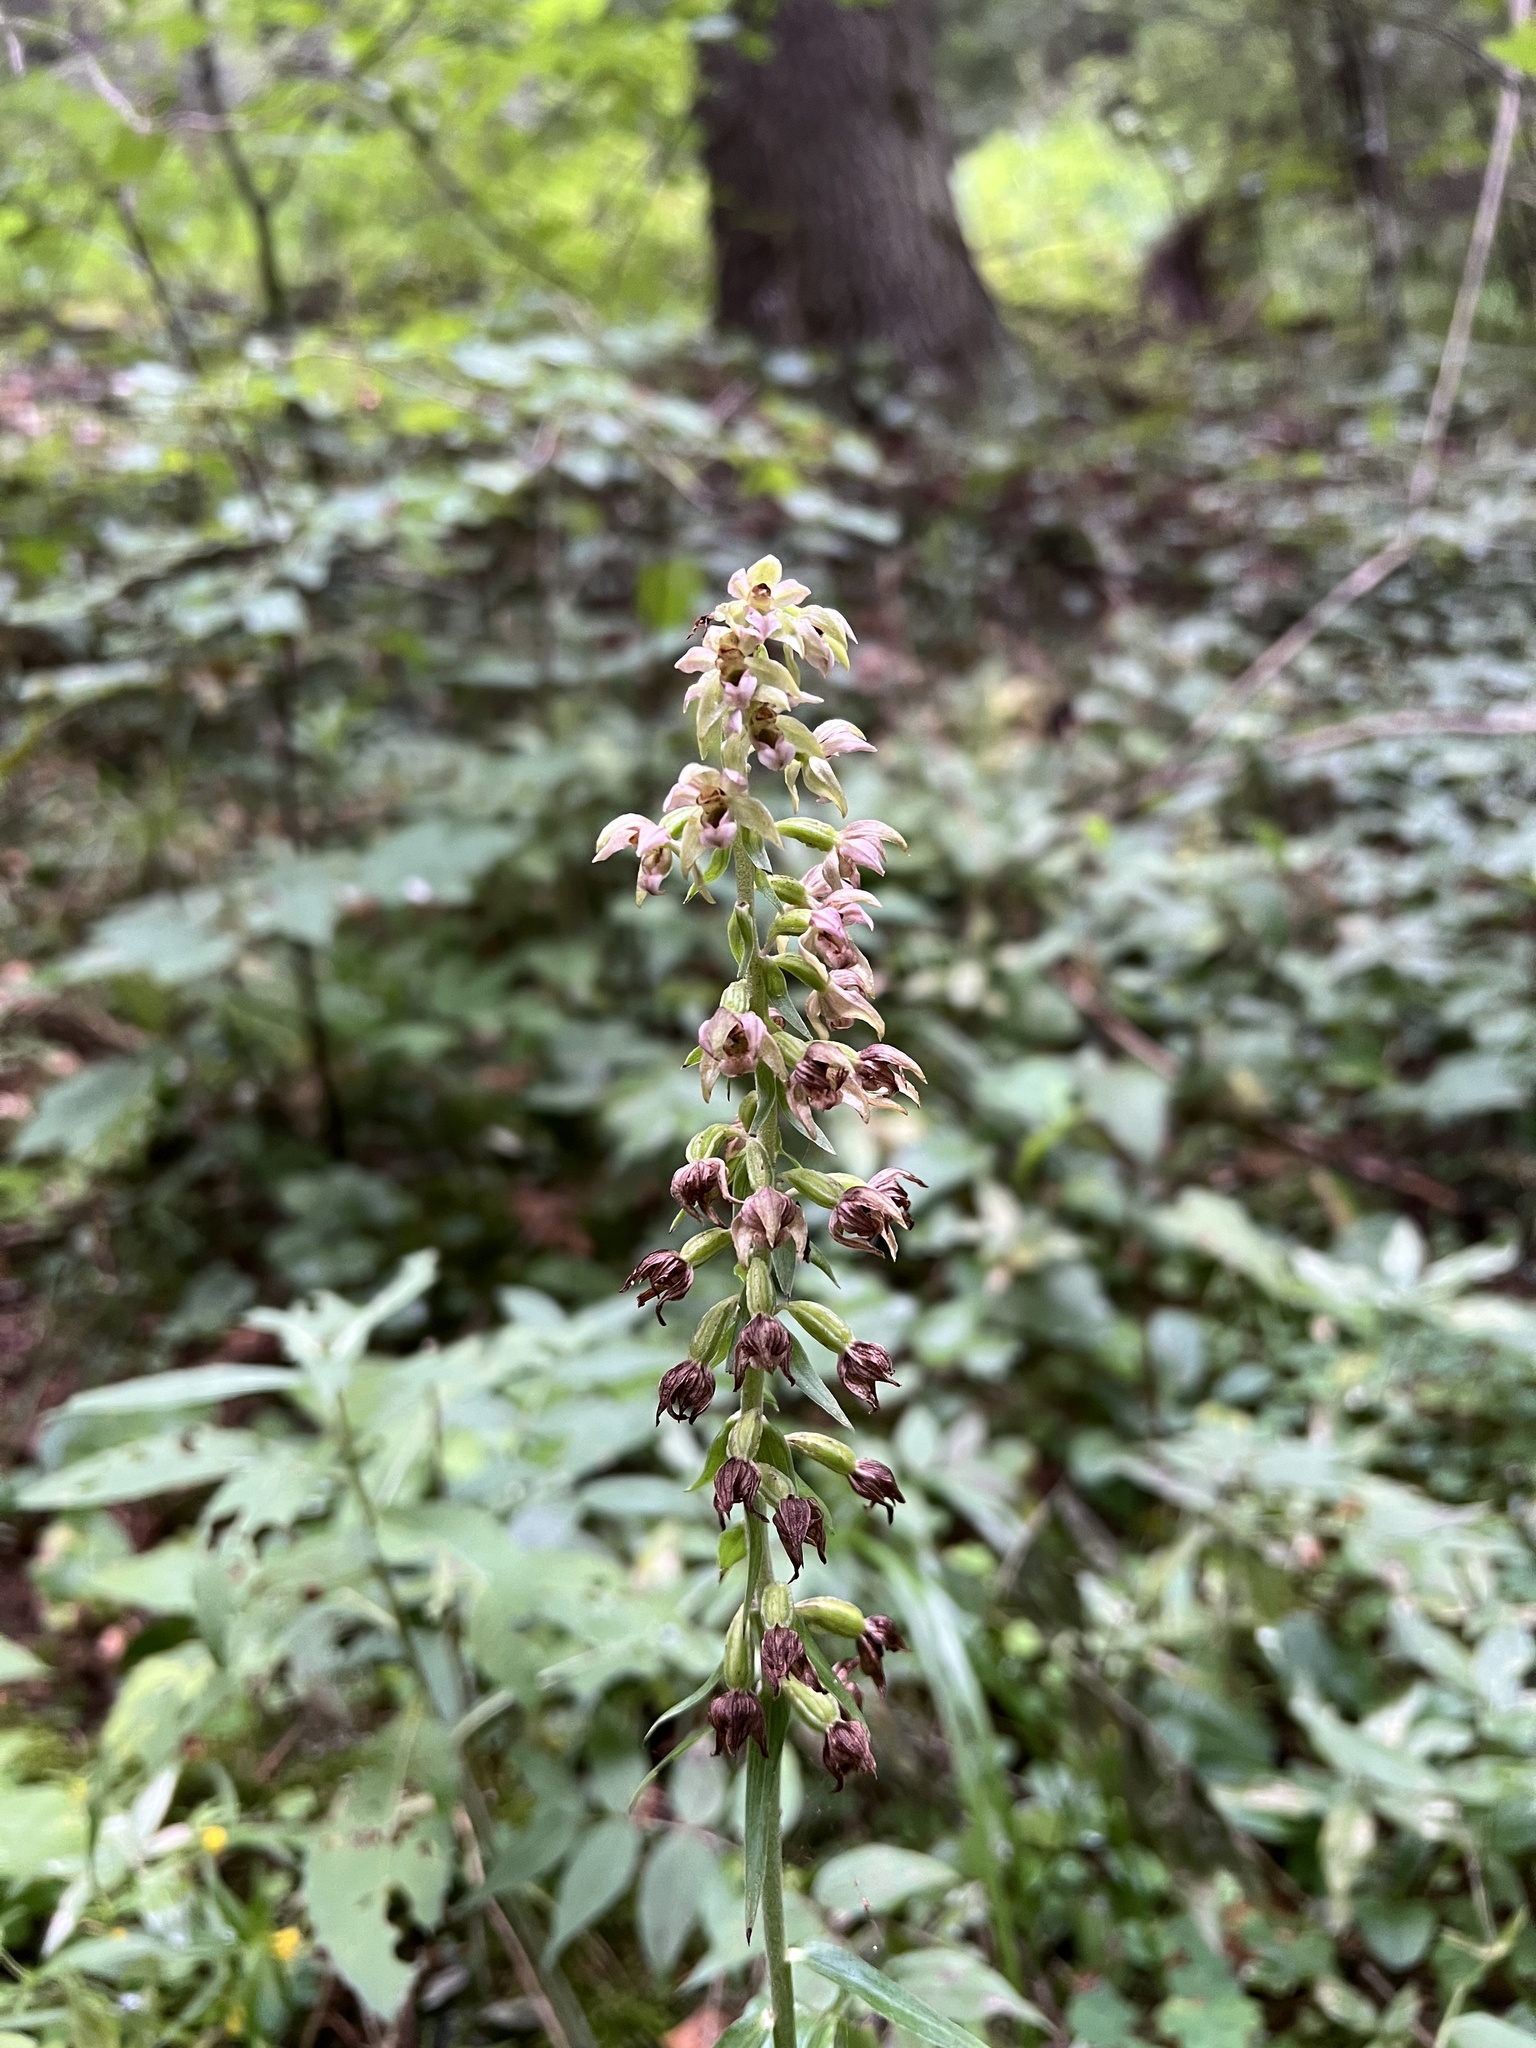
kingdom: Plantae
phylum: Tracheophyta
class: Liliopsida
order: Asparagales
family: Orchidaceae
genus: Epipactis
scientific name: Epipactis helleborine
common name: Broad-leaved helleborine
